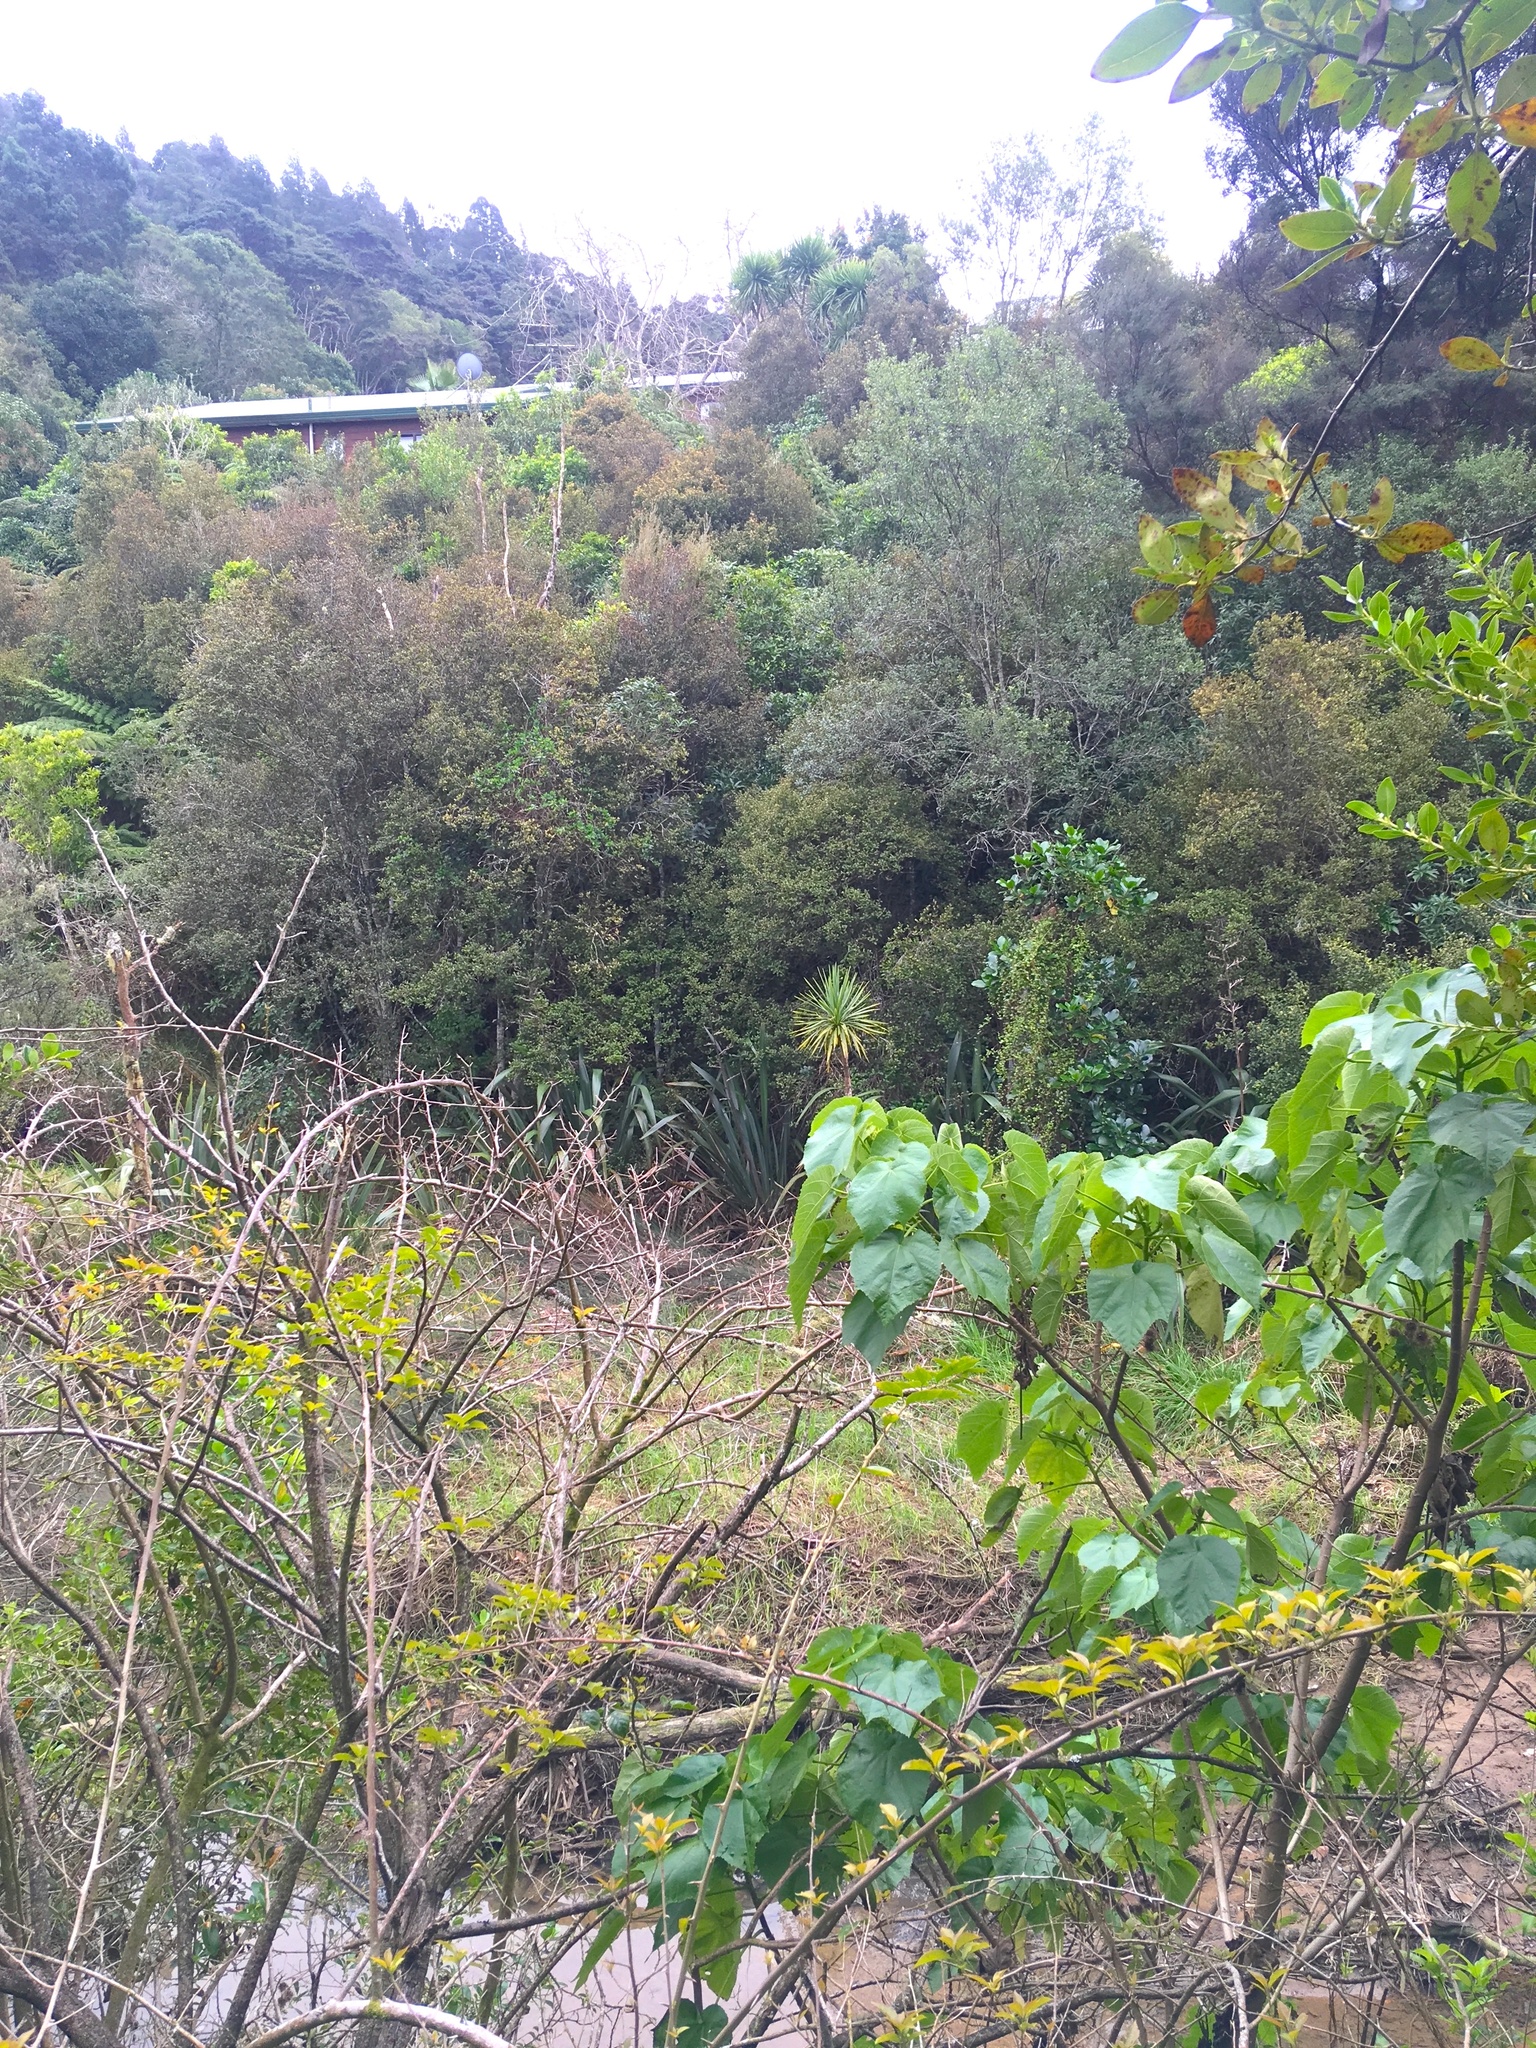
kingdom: Plantae
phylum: Tracheophyta
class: Magnoliopsida
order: Malvales
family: Malvaceae
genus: Entelea
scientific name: Entelea arborescens
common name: New zealand-mulberry
